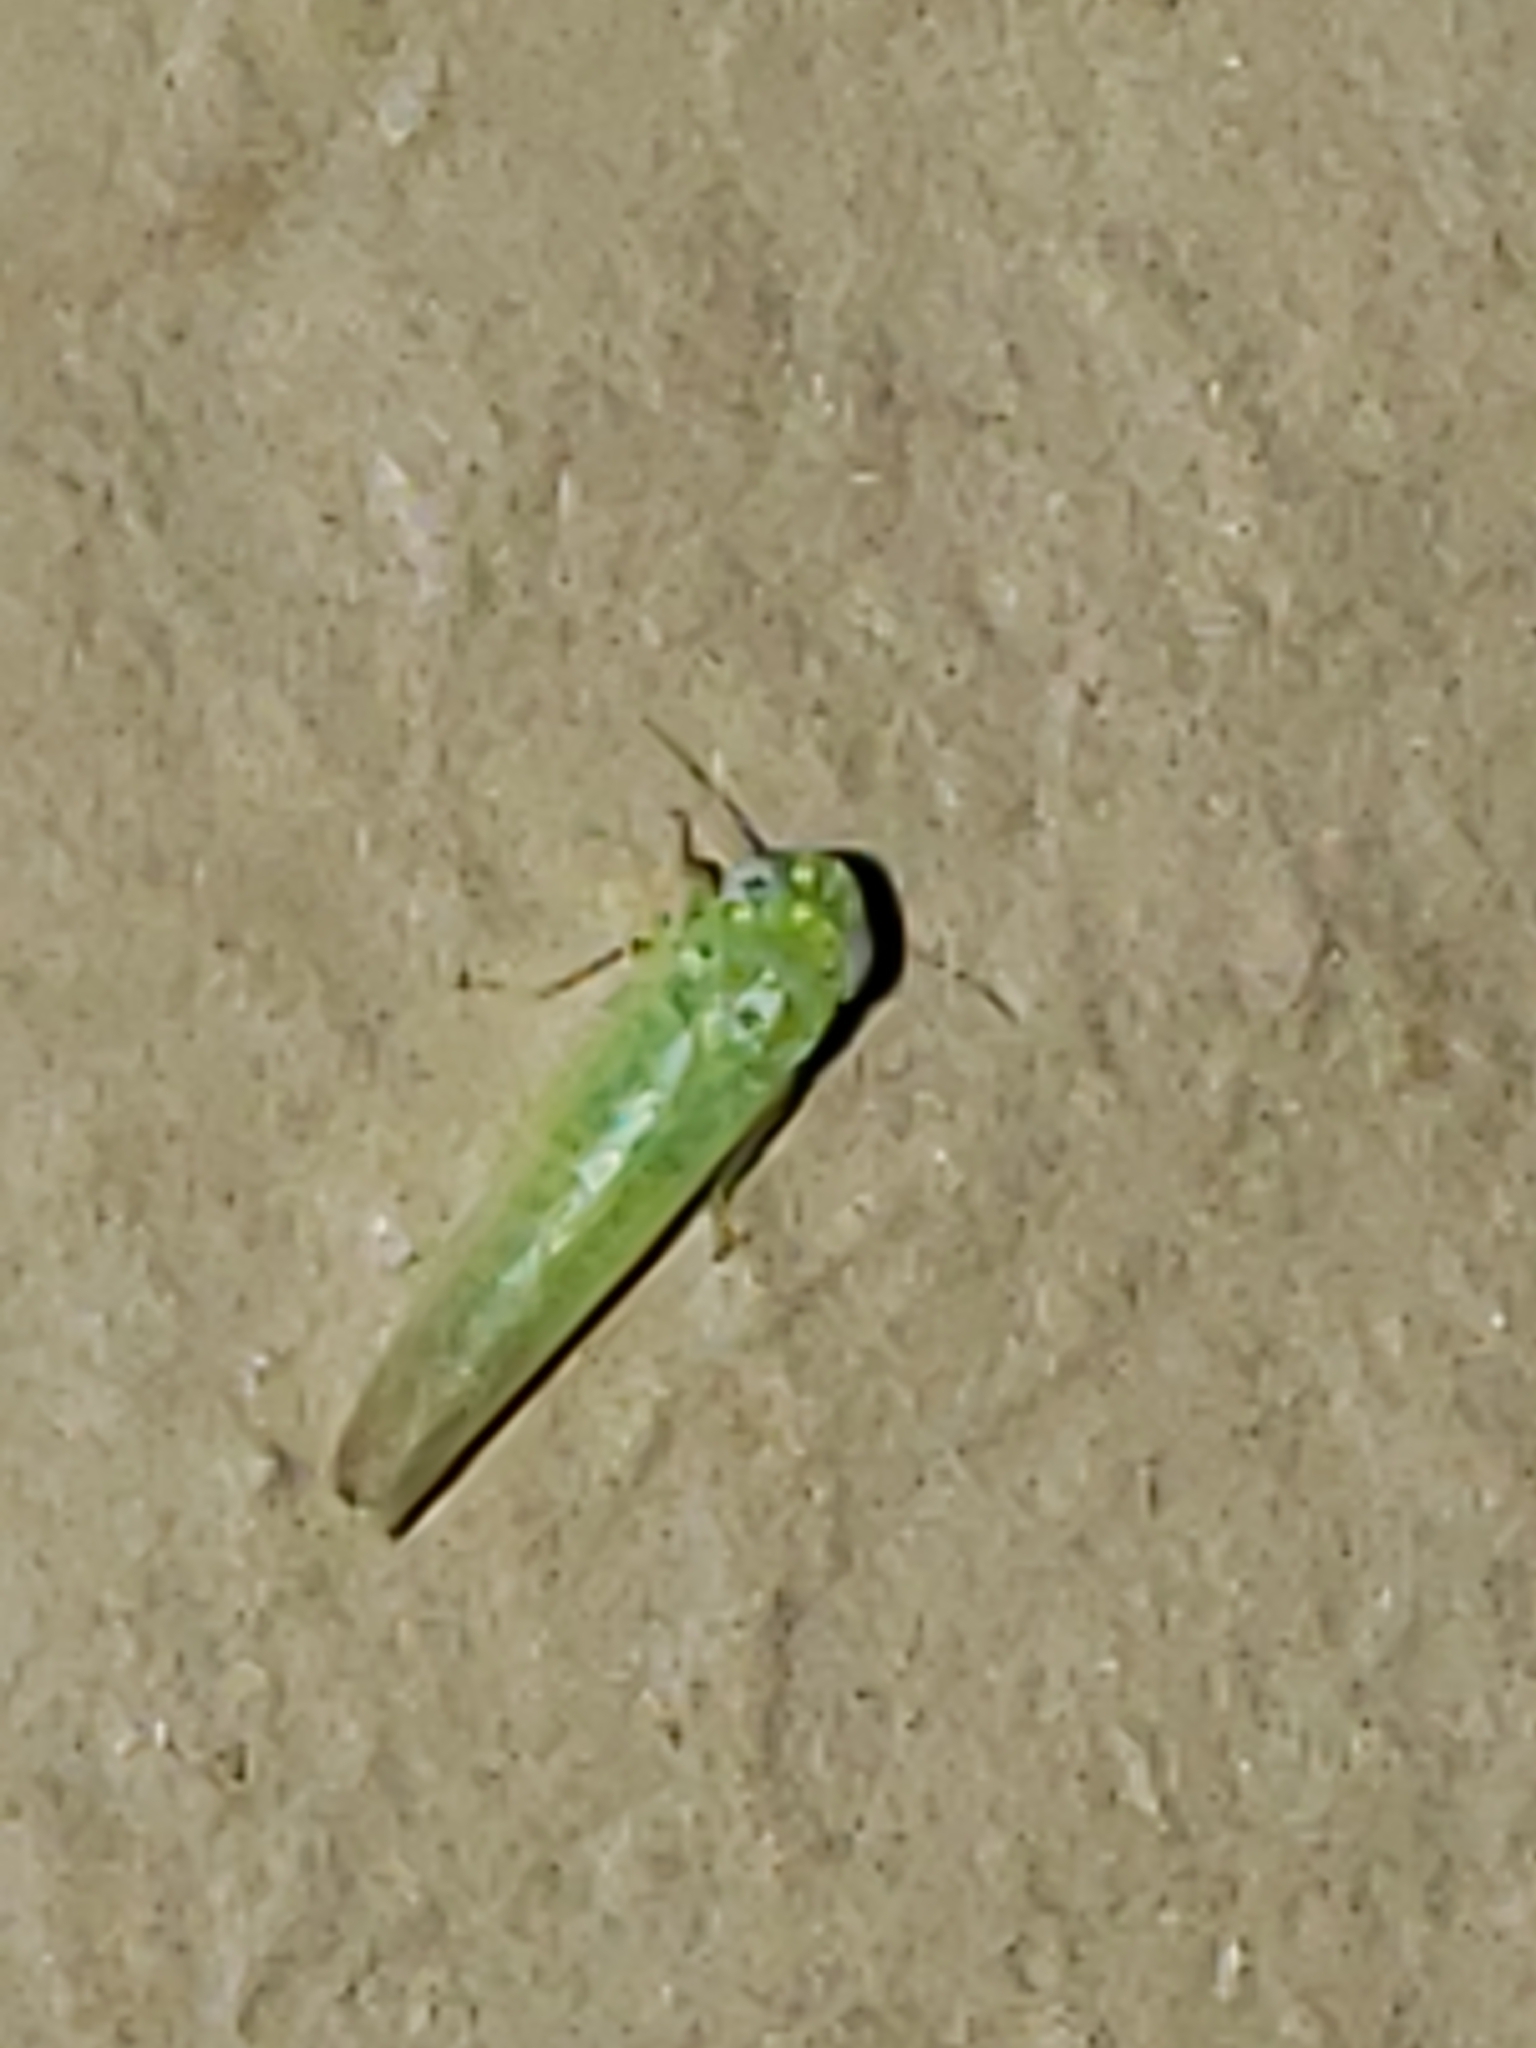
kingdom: Animalia
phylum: Arthropoda
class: Insecta
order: Hemiptera
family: Cicadellidae
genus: Empoasca
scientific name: Empoasca fabae
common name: Potato leafhopper
